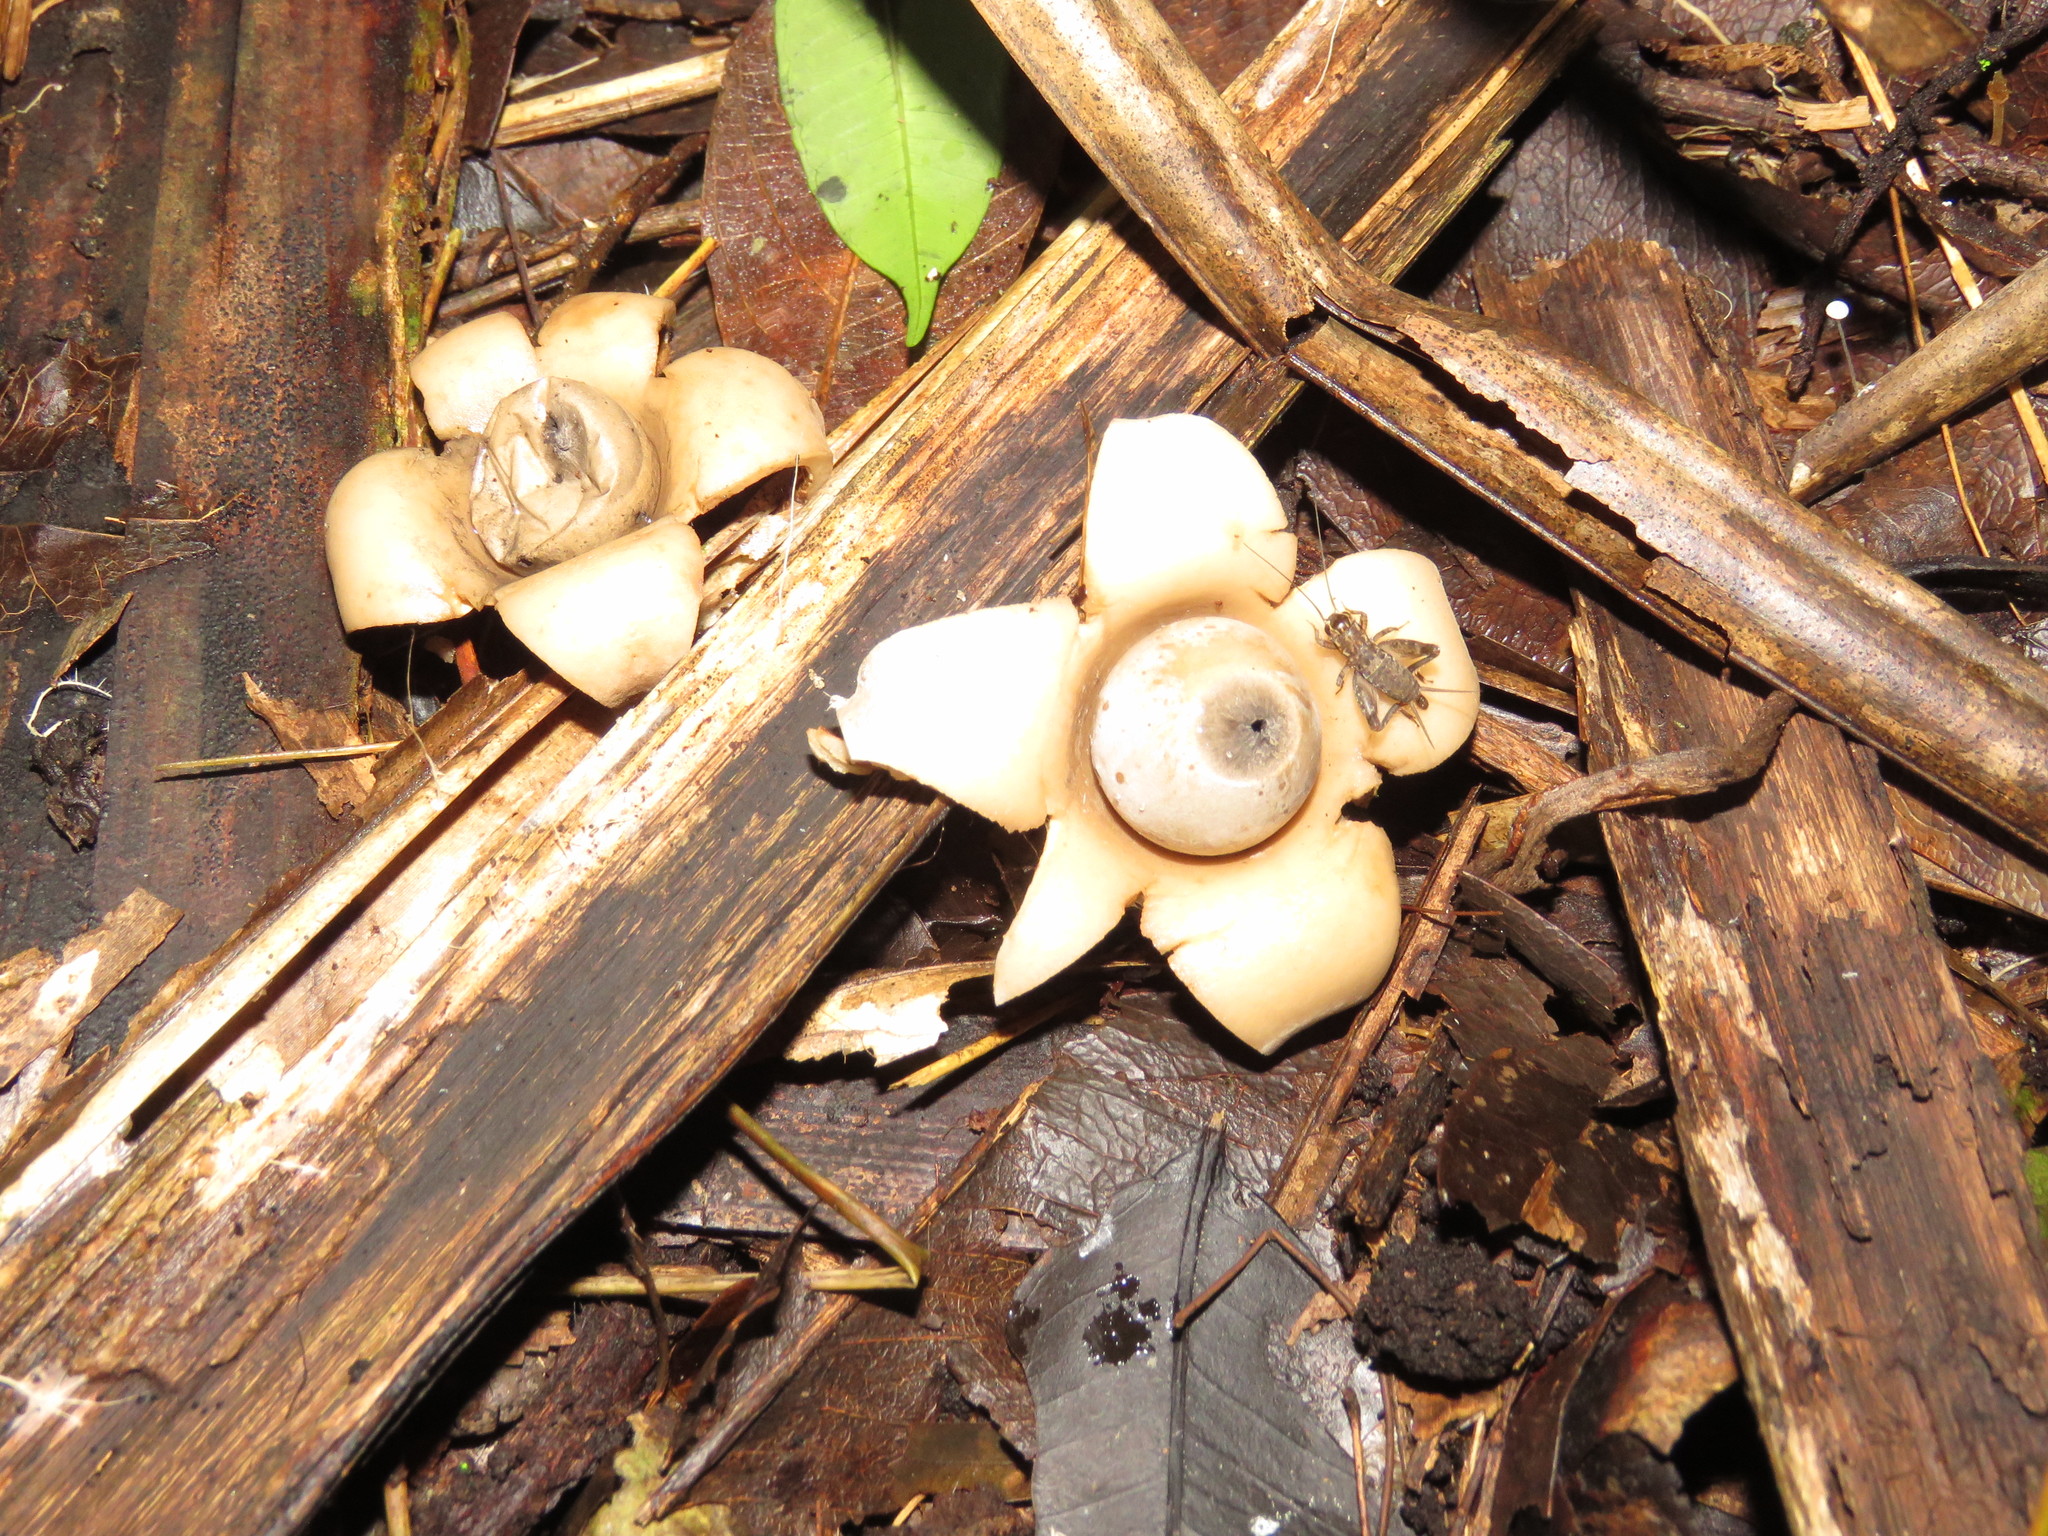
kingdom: Fungi
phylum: Basidiomycota
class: Agaricomycetes
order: Geastrales
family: Geastraceae
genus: Geastrum
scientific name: Geastrum triplex
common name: Collared earthstar
